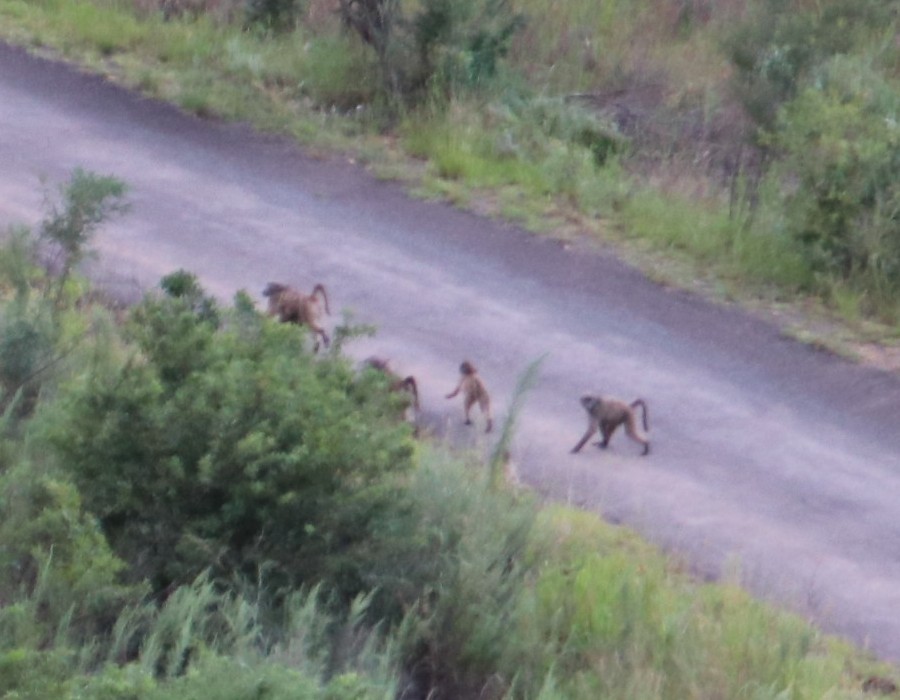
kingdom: Animalia
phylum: Chordata
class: Mammalia
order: Primates
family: Cercopithecidae
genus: Papio
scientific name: Papio ursinus
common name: Chacma baboon
